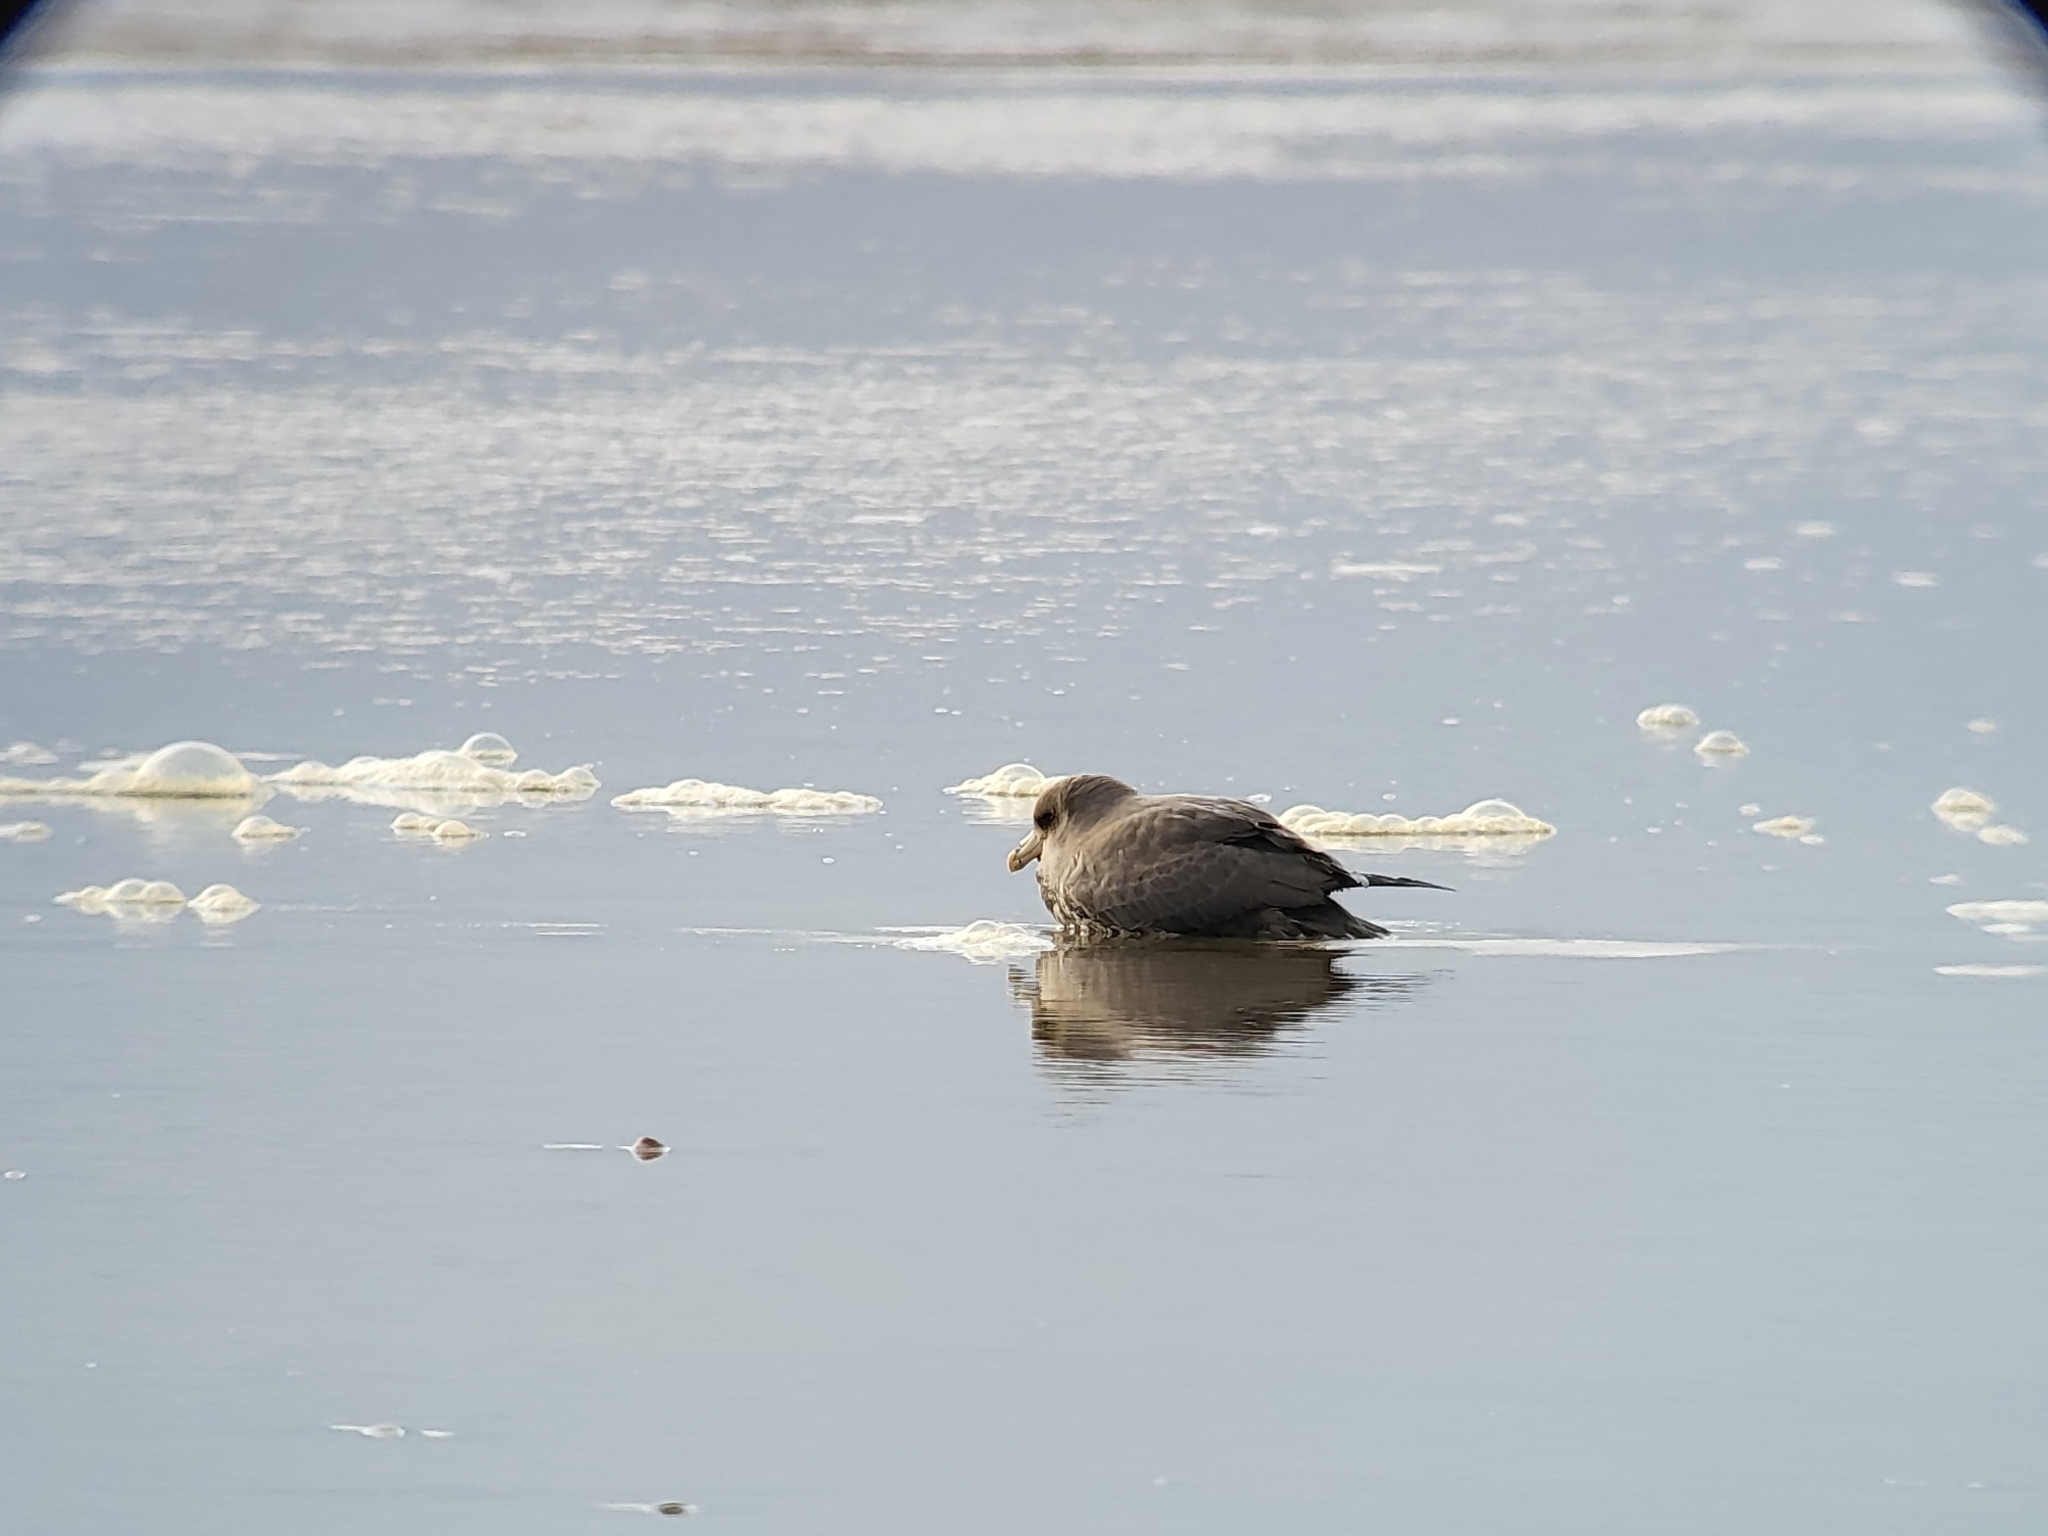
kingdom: Animalia
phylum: Chordata
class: Aves
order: Procellariiformes
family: Procellariidae
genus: Fulmarus
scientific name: Fulmarus glacialis
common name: Northern fulmar
